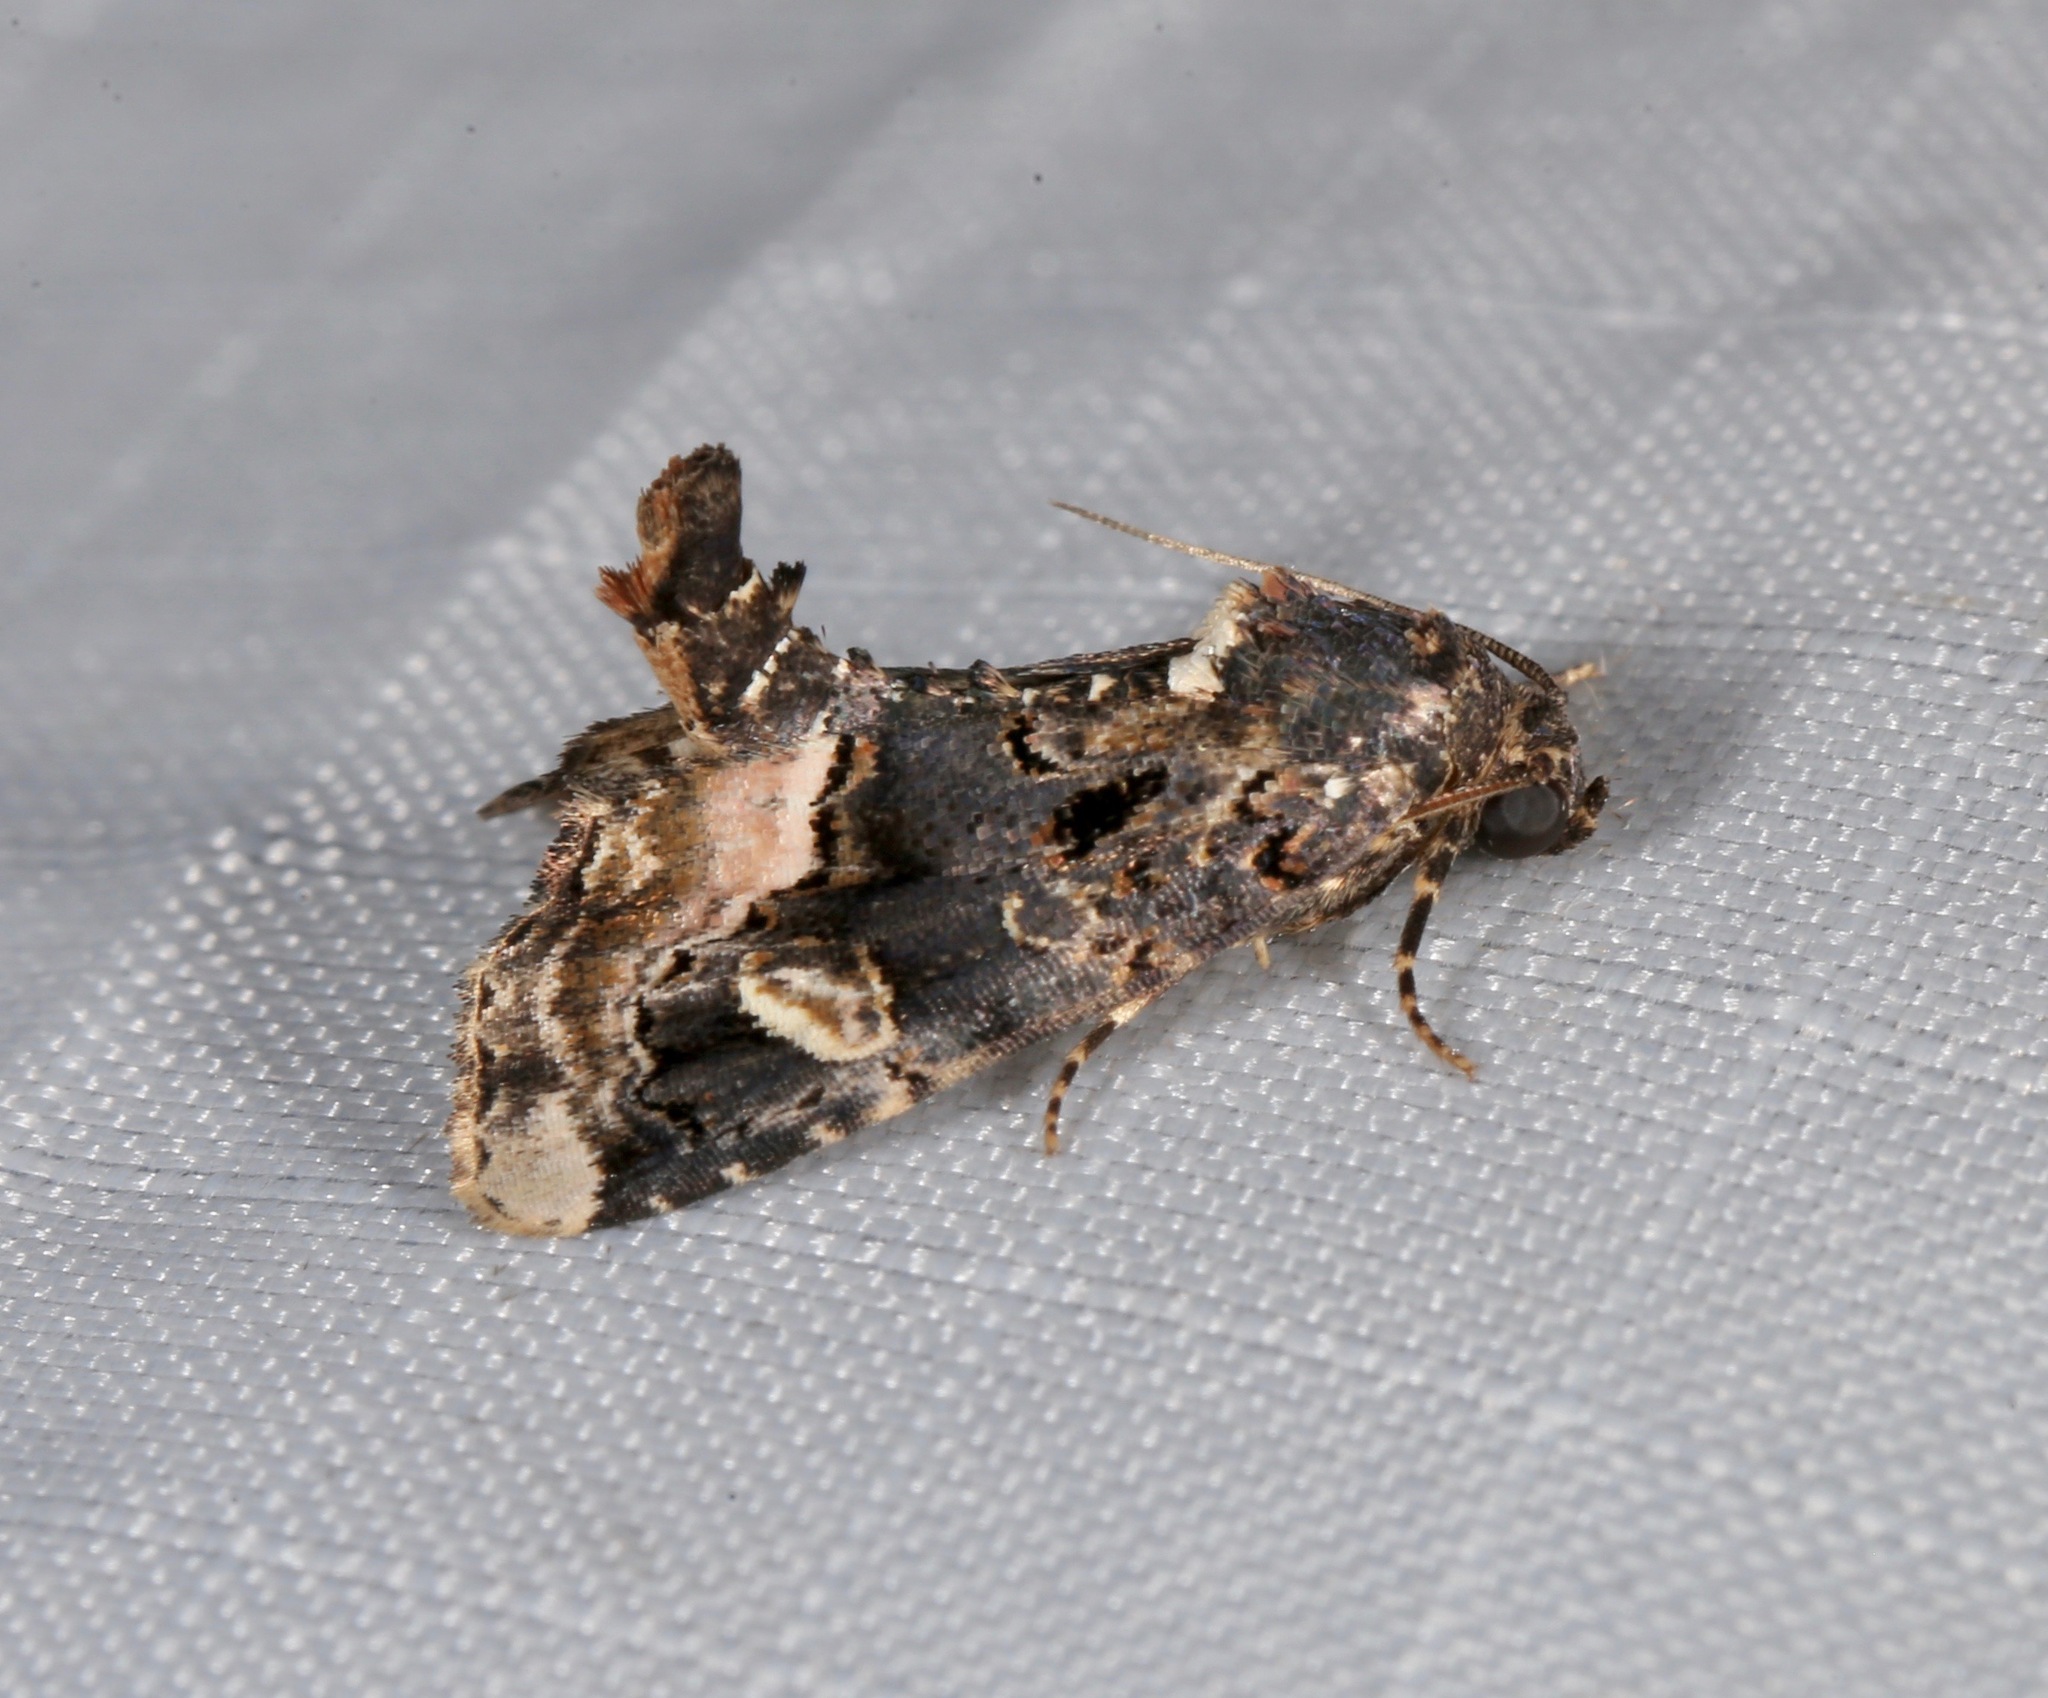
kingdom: Animalia
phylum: Arthropoda
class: Insecta
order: Lepidoptera
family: Noctuidae
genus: Homophoberia
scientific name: Homophoberia apicosa
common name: Black wedge-spot
